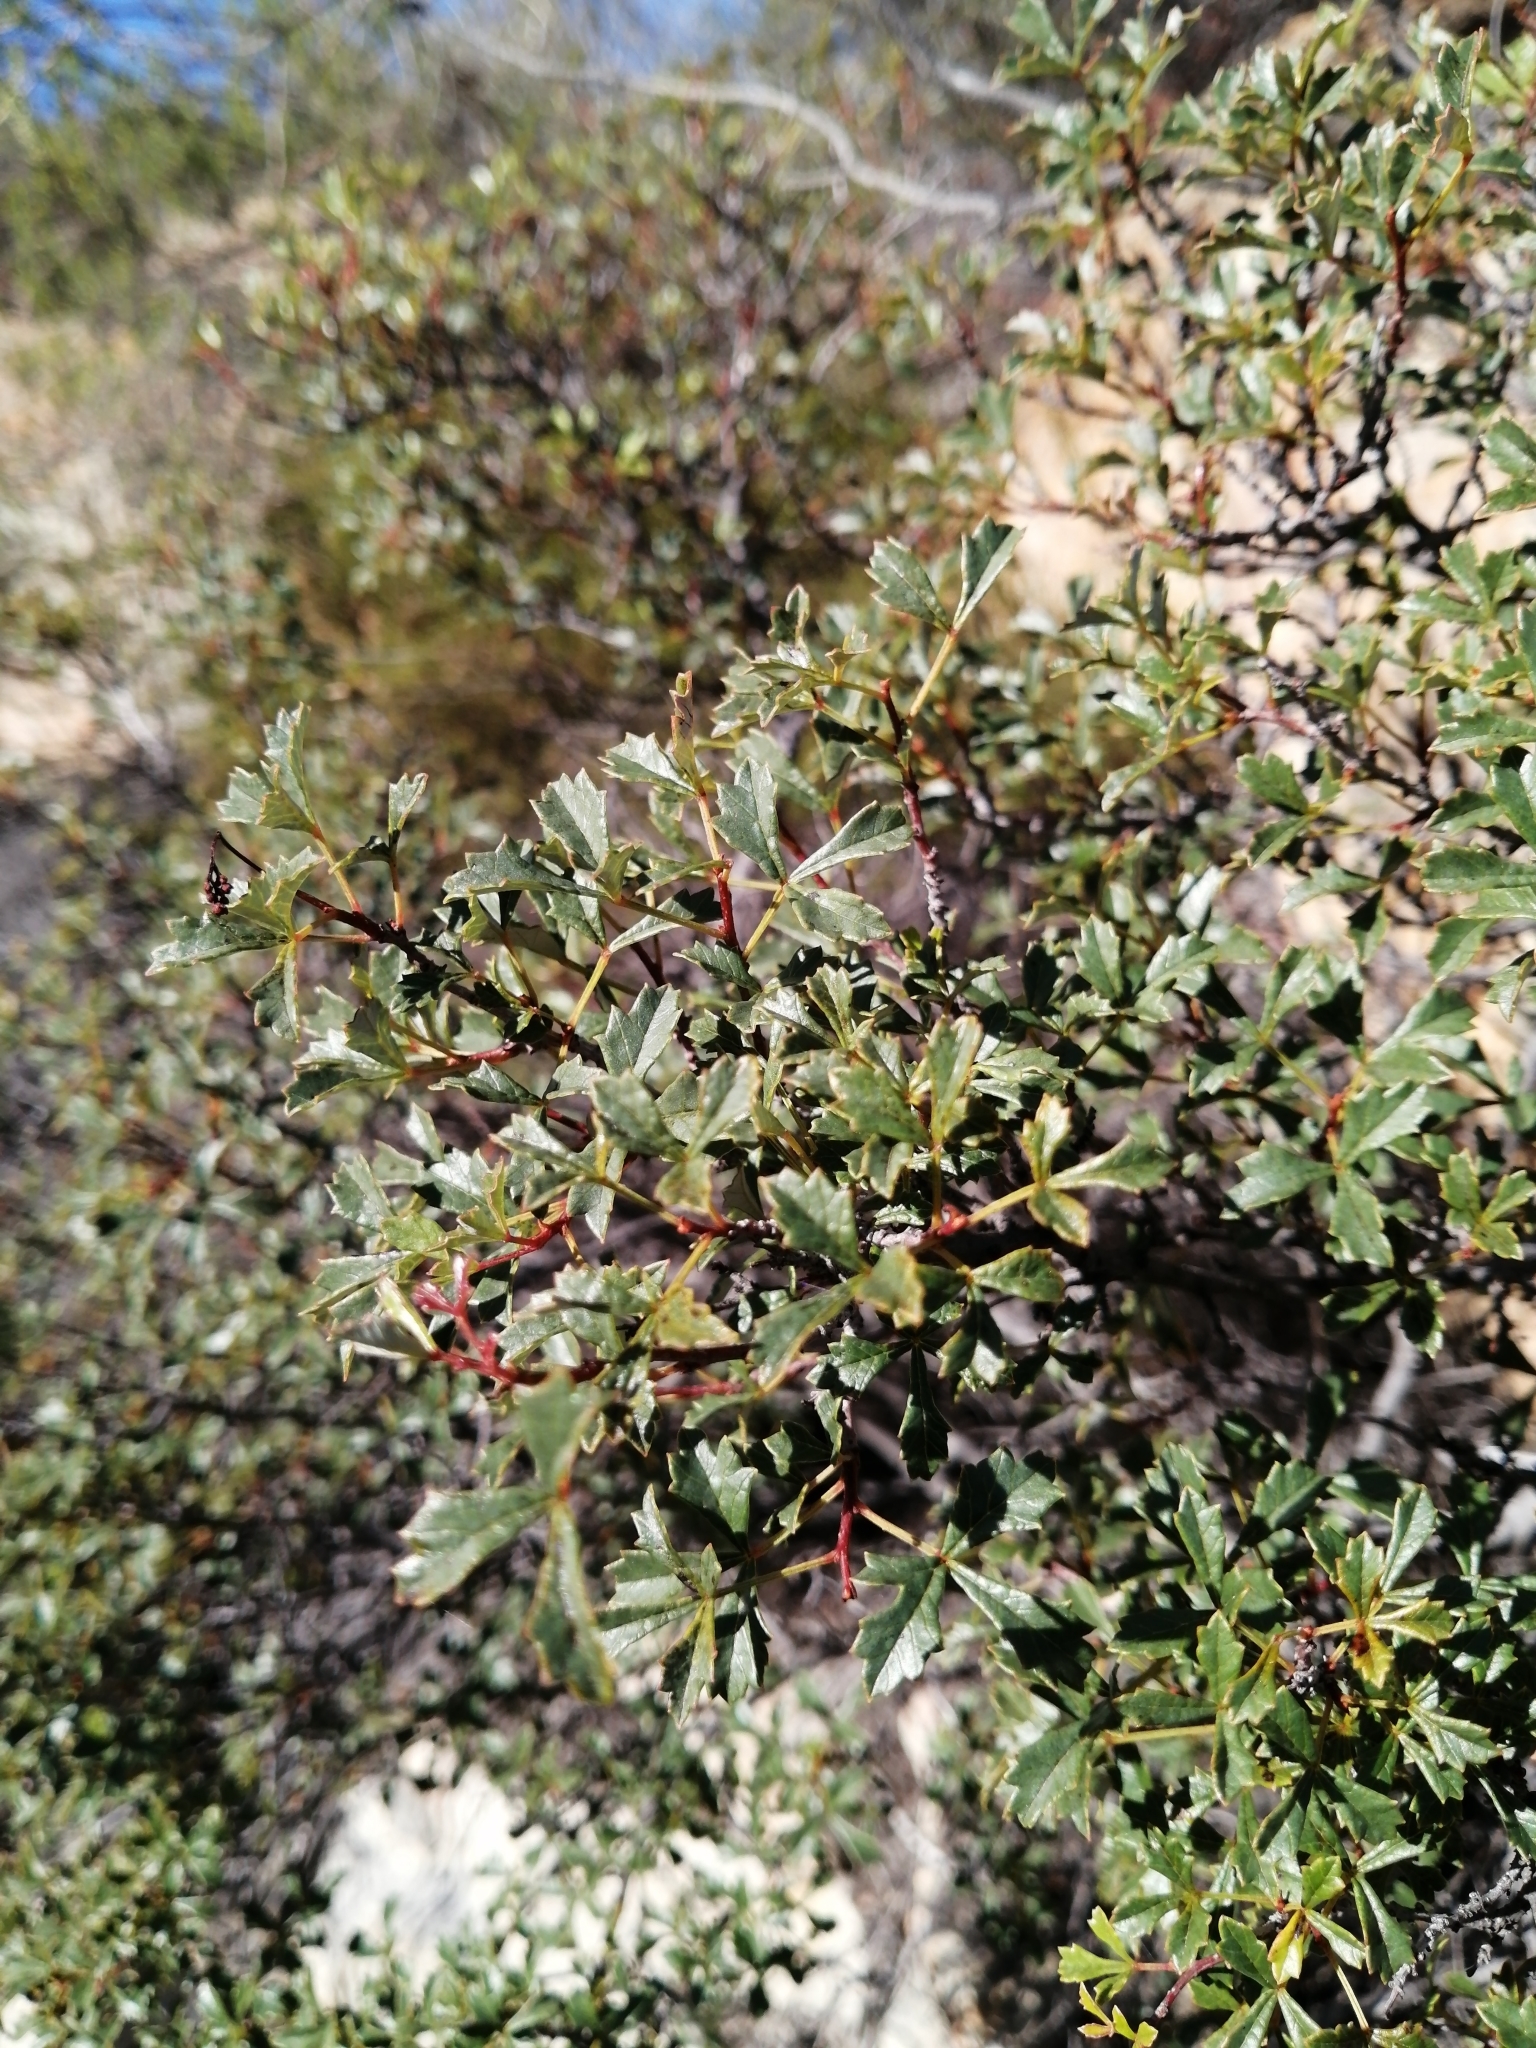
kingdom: Plantae
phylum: Tracheophyta
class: Magnoliopsida
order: Sapindales
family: Anacardiaceae
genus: Searsia
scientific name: Searsia dissecta
